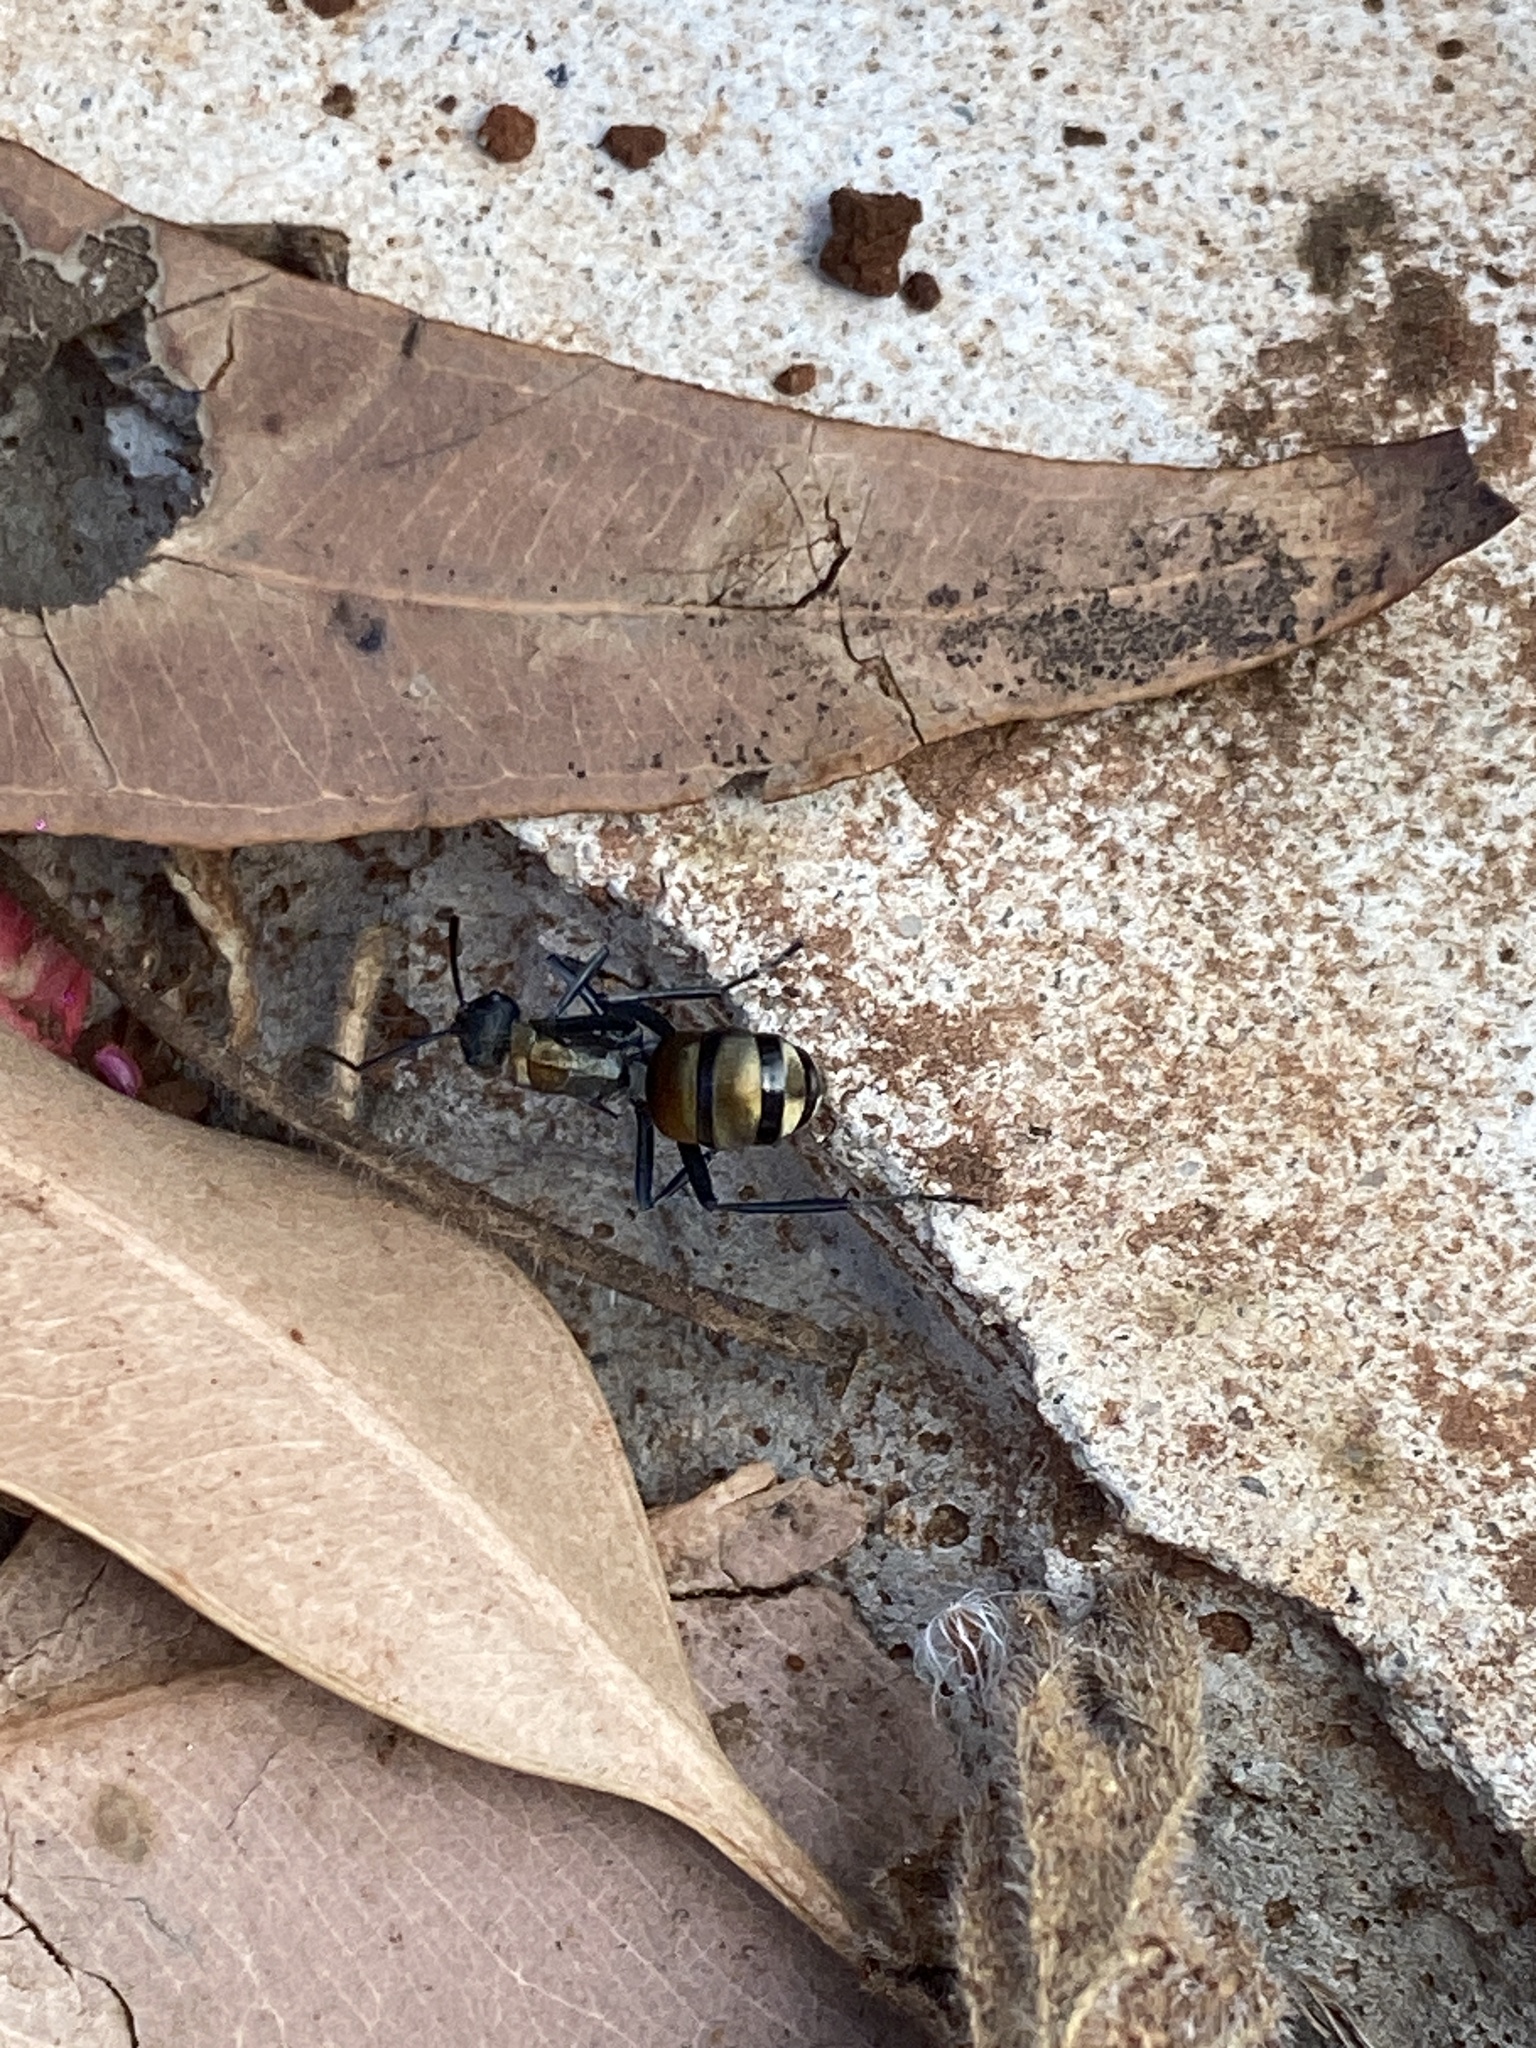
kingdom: Animalia
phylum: Arthropoda
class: Insecta
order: Hymenoptera
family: Formicidae
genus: Polyrhachis
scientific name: Polyrhachis ammon
